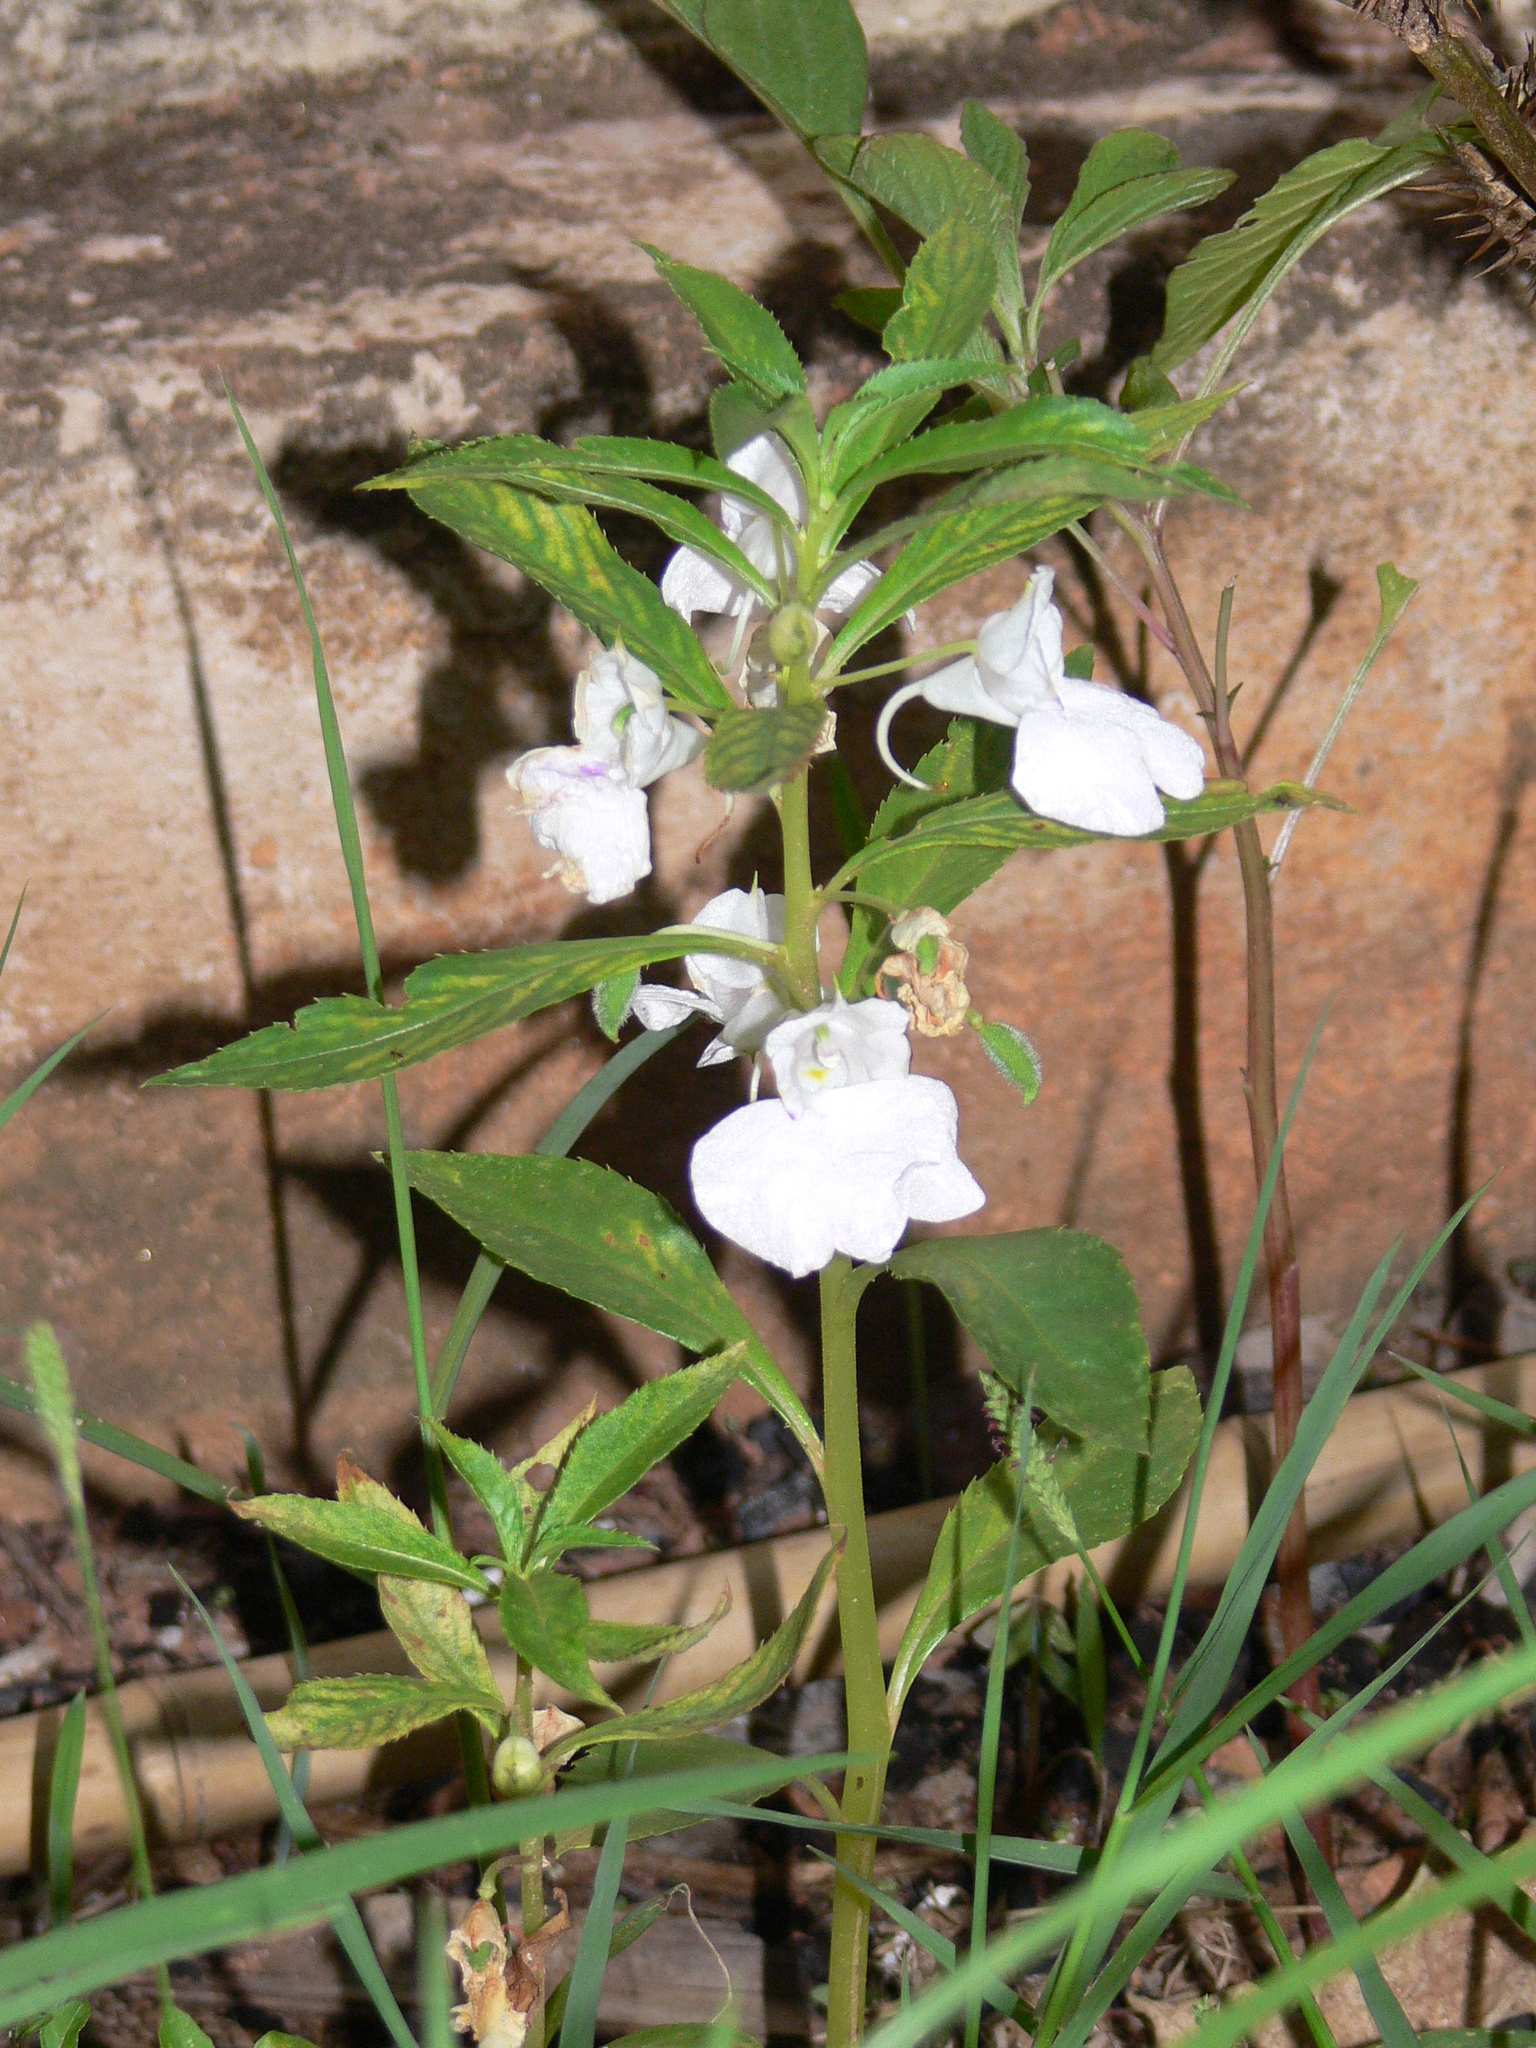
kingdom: Plantae
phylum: Tracheophyta
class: Magnoliopsida
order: Ericales
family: Balsaminaceae
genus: Impatiens
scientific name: Impatiens balsamina
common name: Balsam
